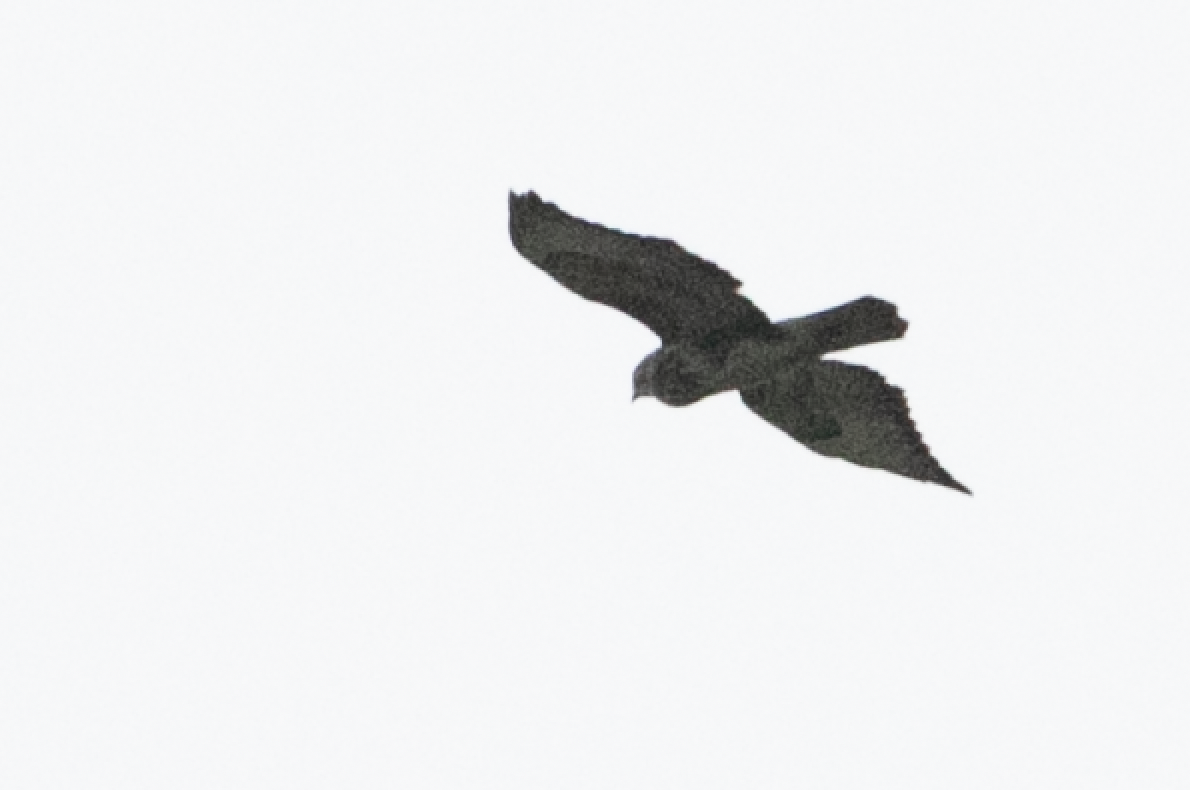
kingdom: Animalia
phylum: Chordata
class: Aves
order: Accipitriformes
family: Accipitridae
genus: Buteo
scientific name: Buteo buteo
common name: Common buzzard
